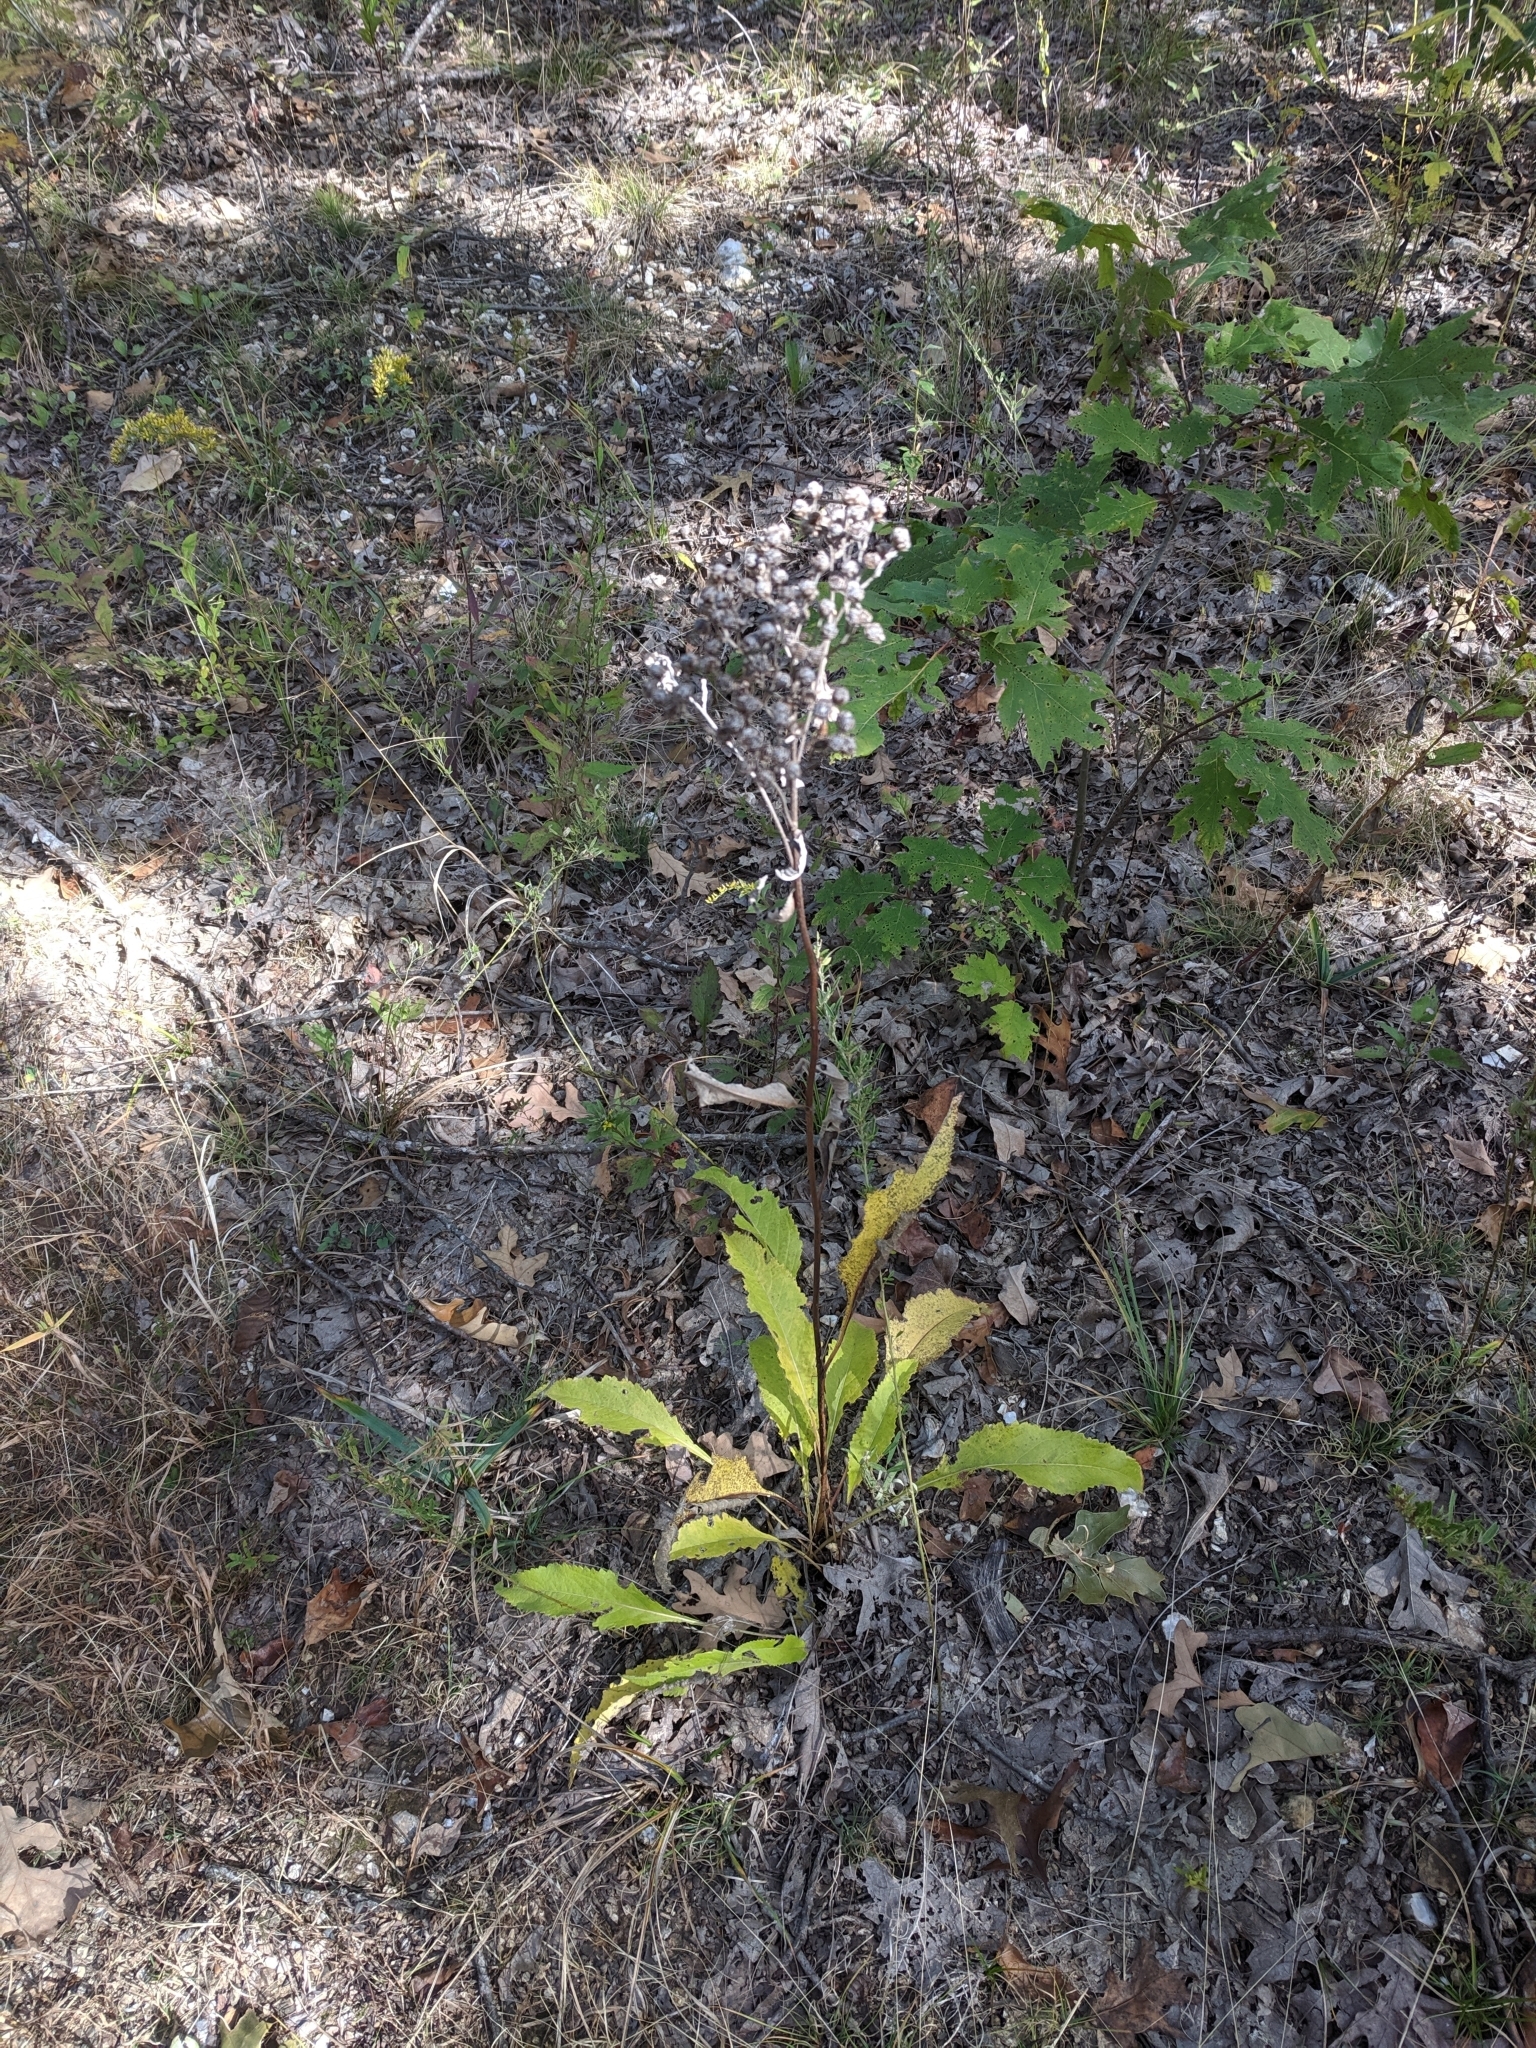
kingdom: Plantae
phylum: Tracheophyta
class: Magnoliopsida
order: Asterales
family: Asteraceae
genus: Parthenium
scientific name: Parthenium integrifolium
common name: American feverfew
